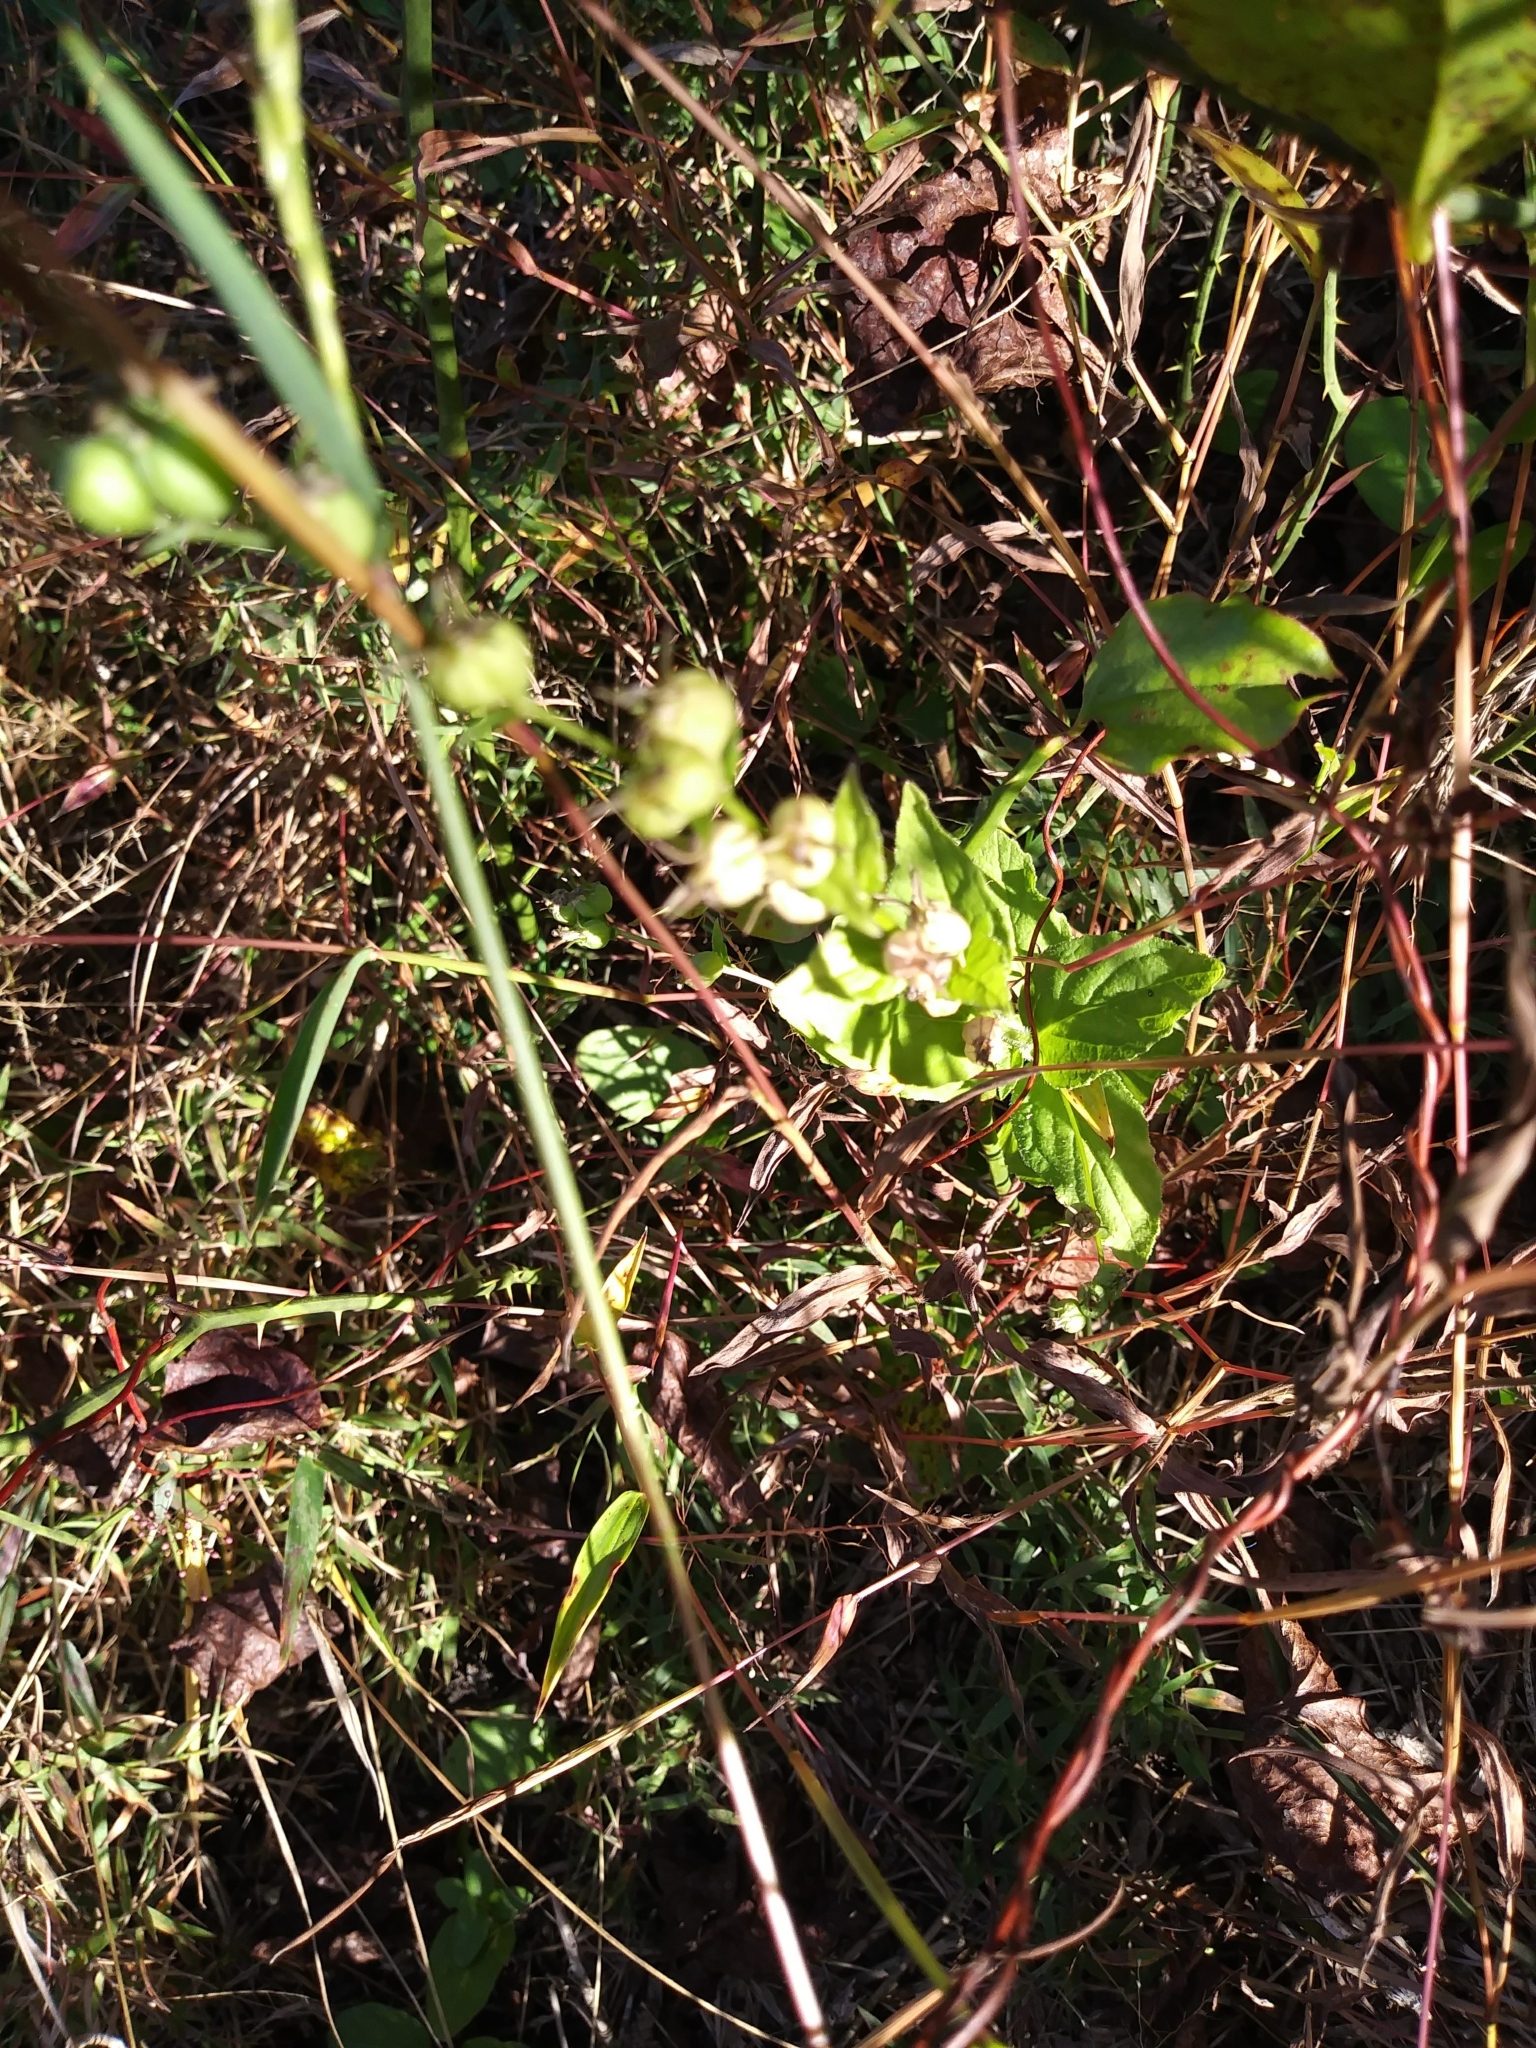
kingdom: Plantae
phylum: Tracheophyta
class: Magnoliopsida
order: Asterales
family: Campanulaceae
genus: Lobelia
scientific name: Lobelia inflata
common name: Indian tobacco
